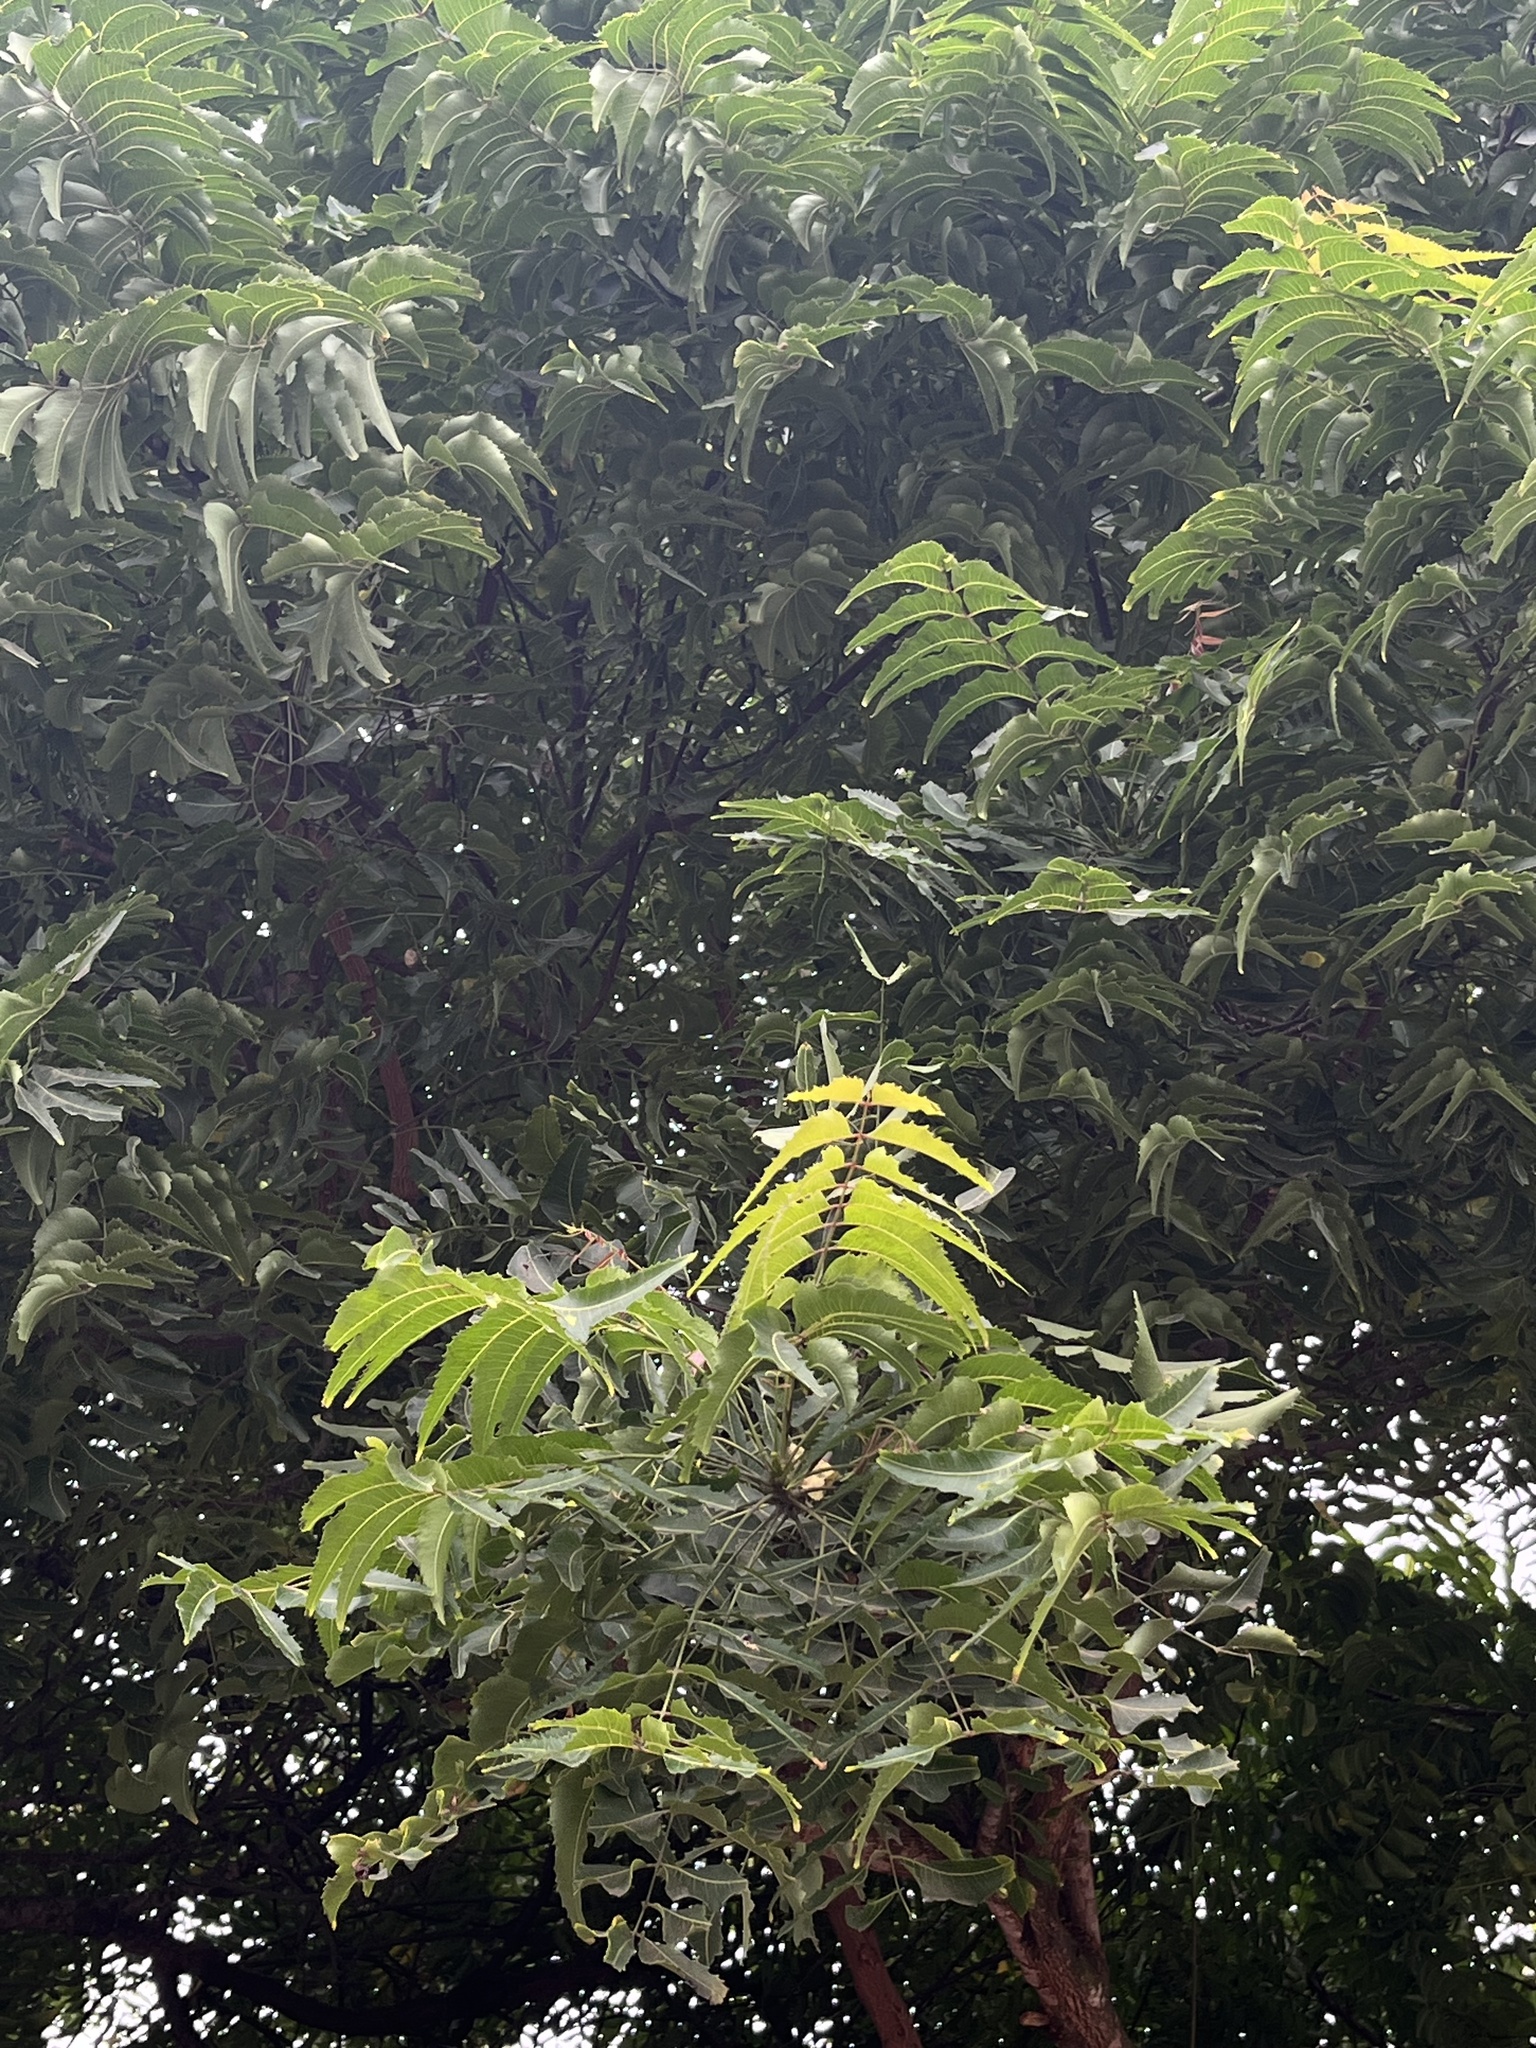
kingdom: Plantae
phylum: Tracheophyta
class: Magnoliopsida
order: Sapindales
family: Meliaceae
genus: Azadirachta
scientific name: Azadirachta indica
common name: Neem
